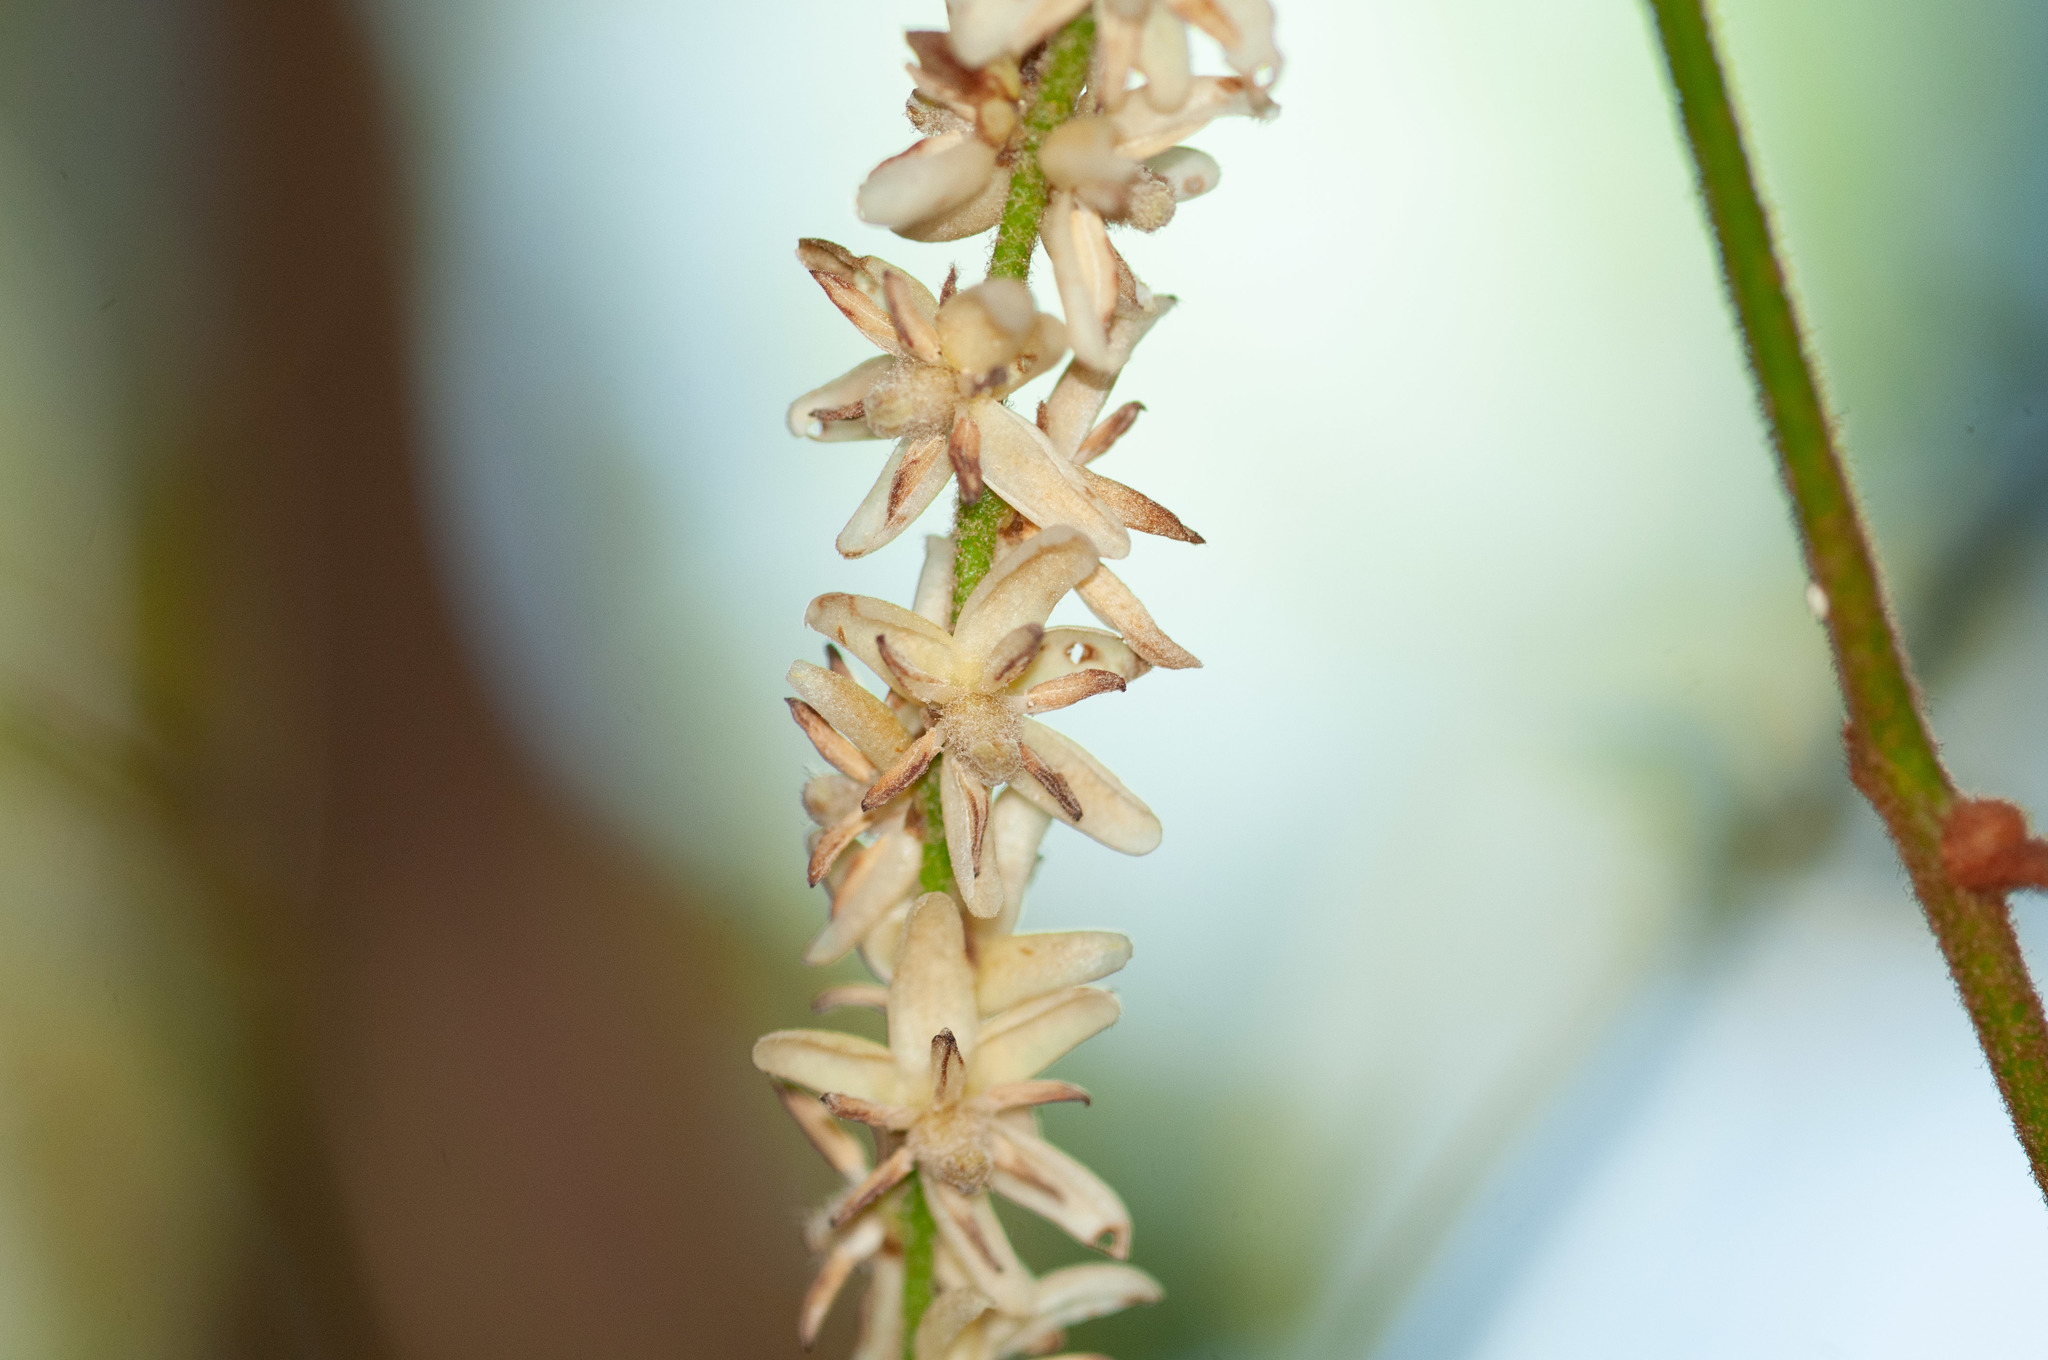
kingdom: Plantae
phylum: Tracheophyta
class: Liliopsida
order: Liliales
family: Ripogonaceae
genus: Ripogonum
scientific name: Ripogonum elseyanum
